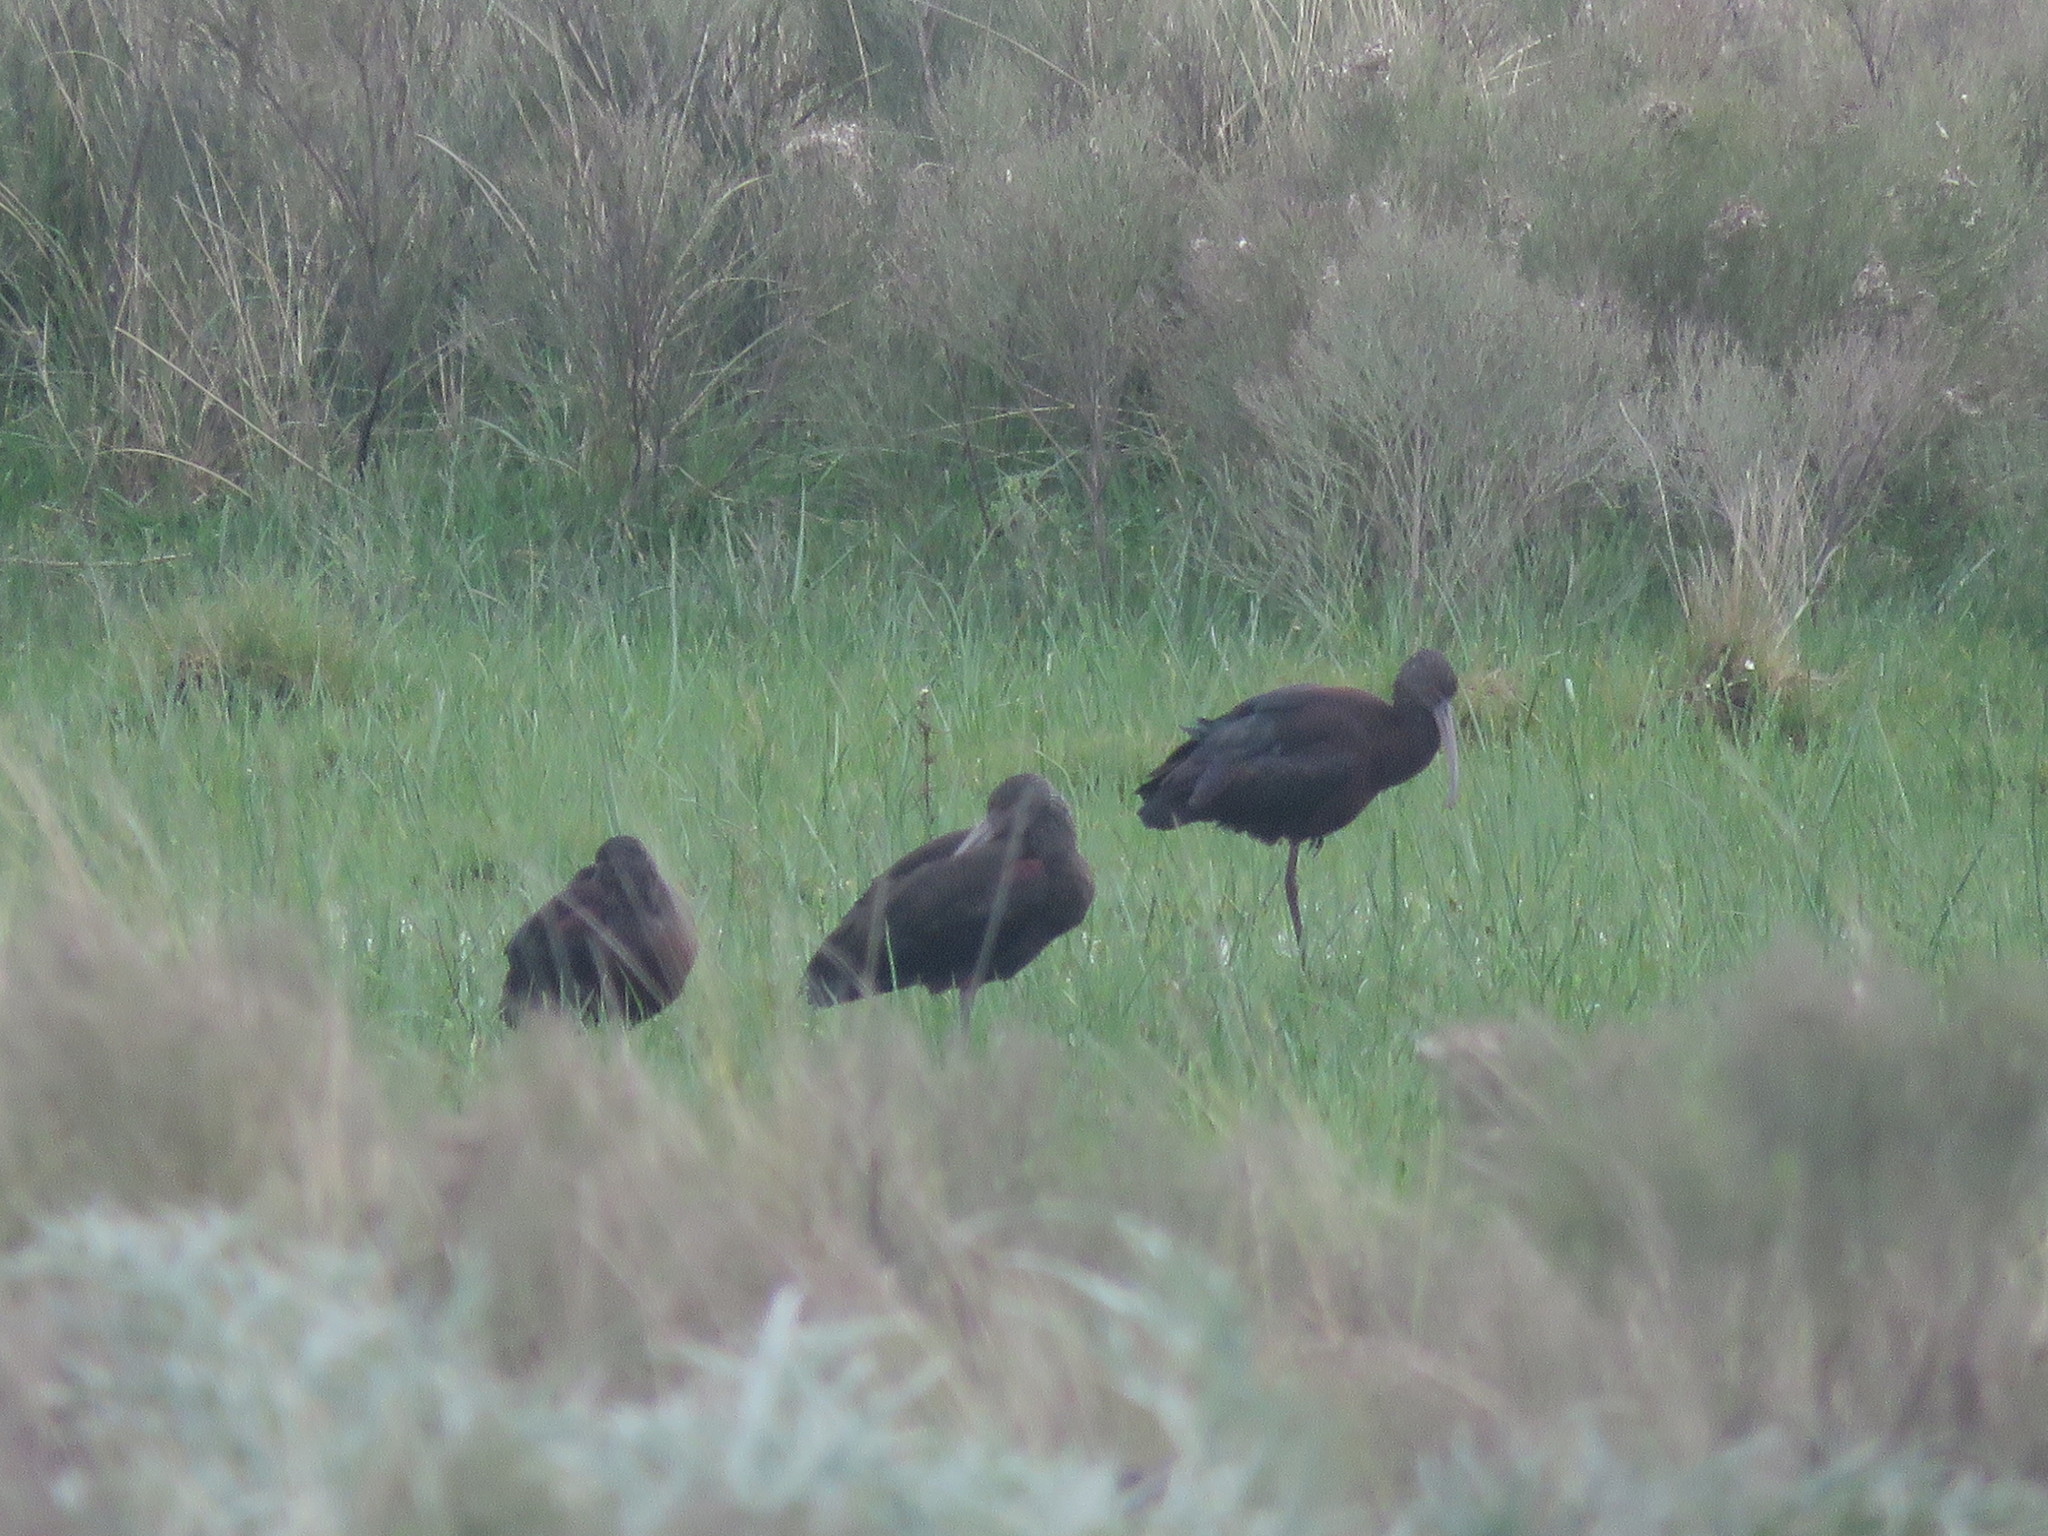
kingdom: Animalia
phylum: Chordata
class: Aves
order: Pelecaniformes
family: Threskiornithidae
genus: Plegadis
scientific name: Plegadis chihi
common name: White-faced ibis
